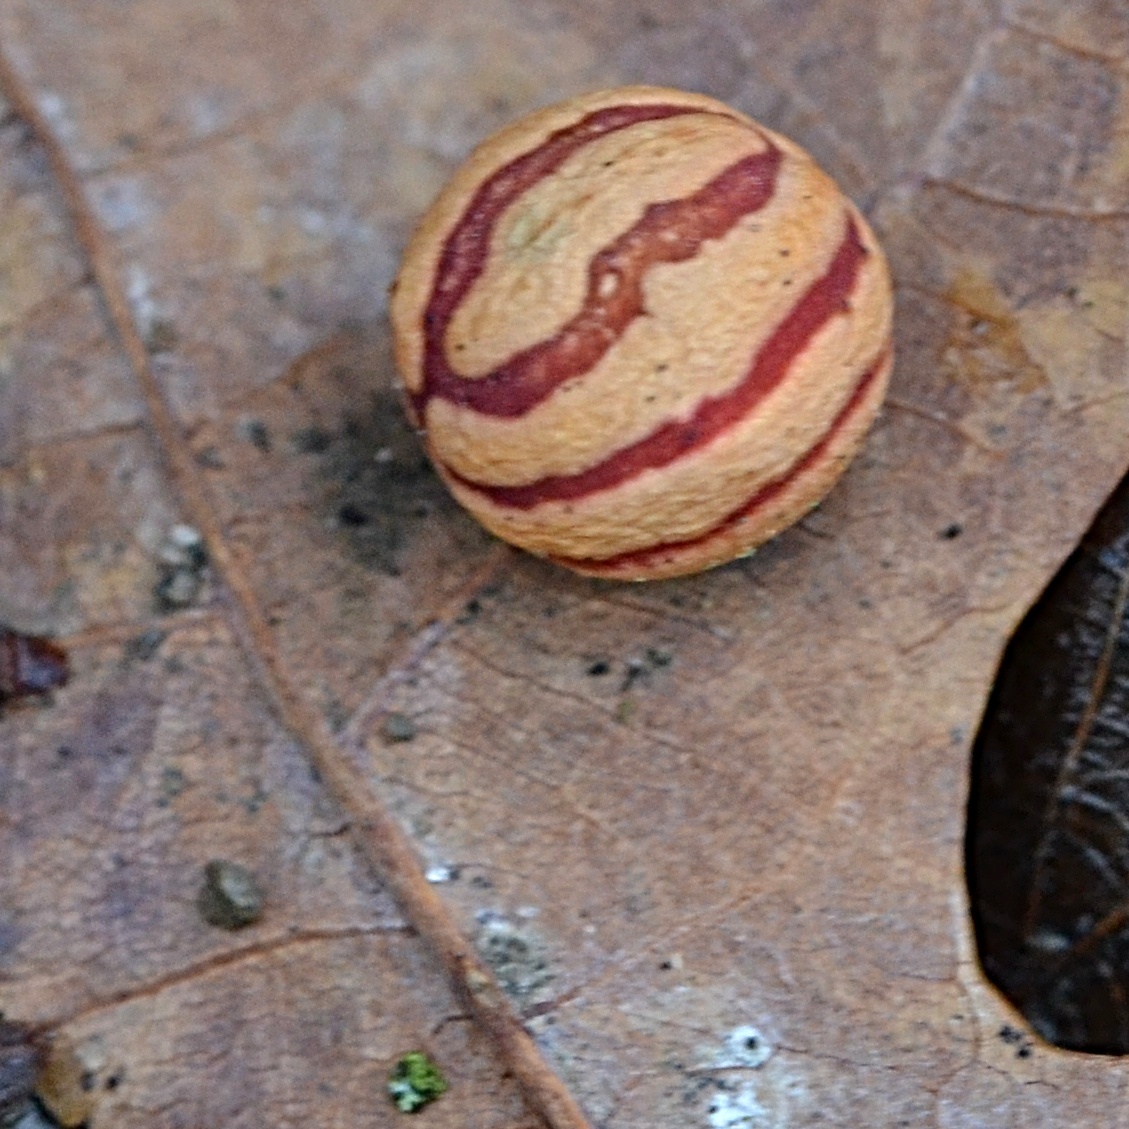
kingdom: Animalia
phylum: Arthropoda
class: Insecta
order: Hymenoptera
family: Cynipidae
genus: Cynips
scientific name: Cynips longiventris
